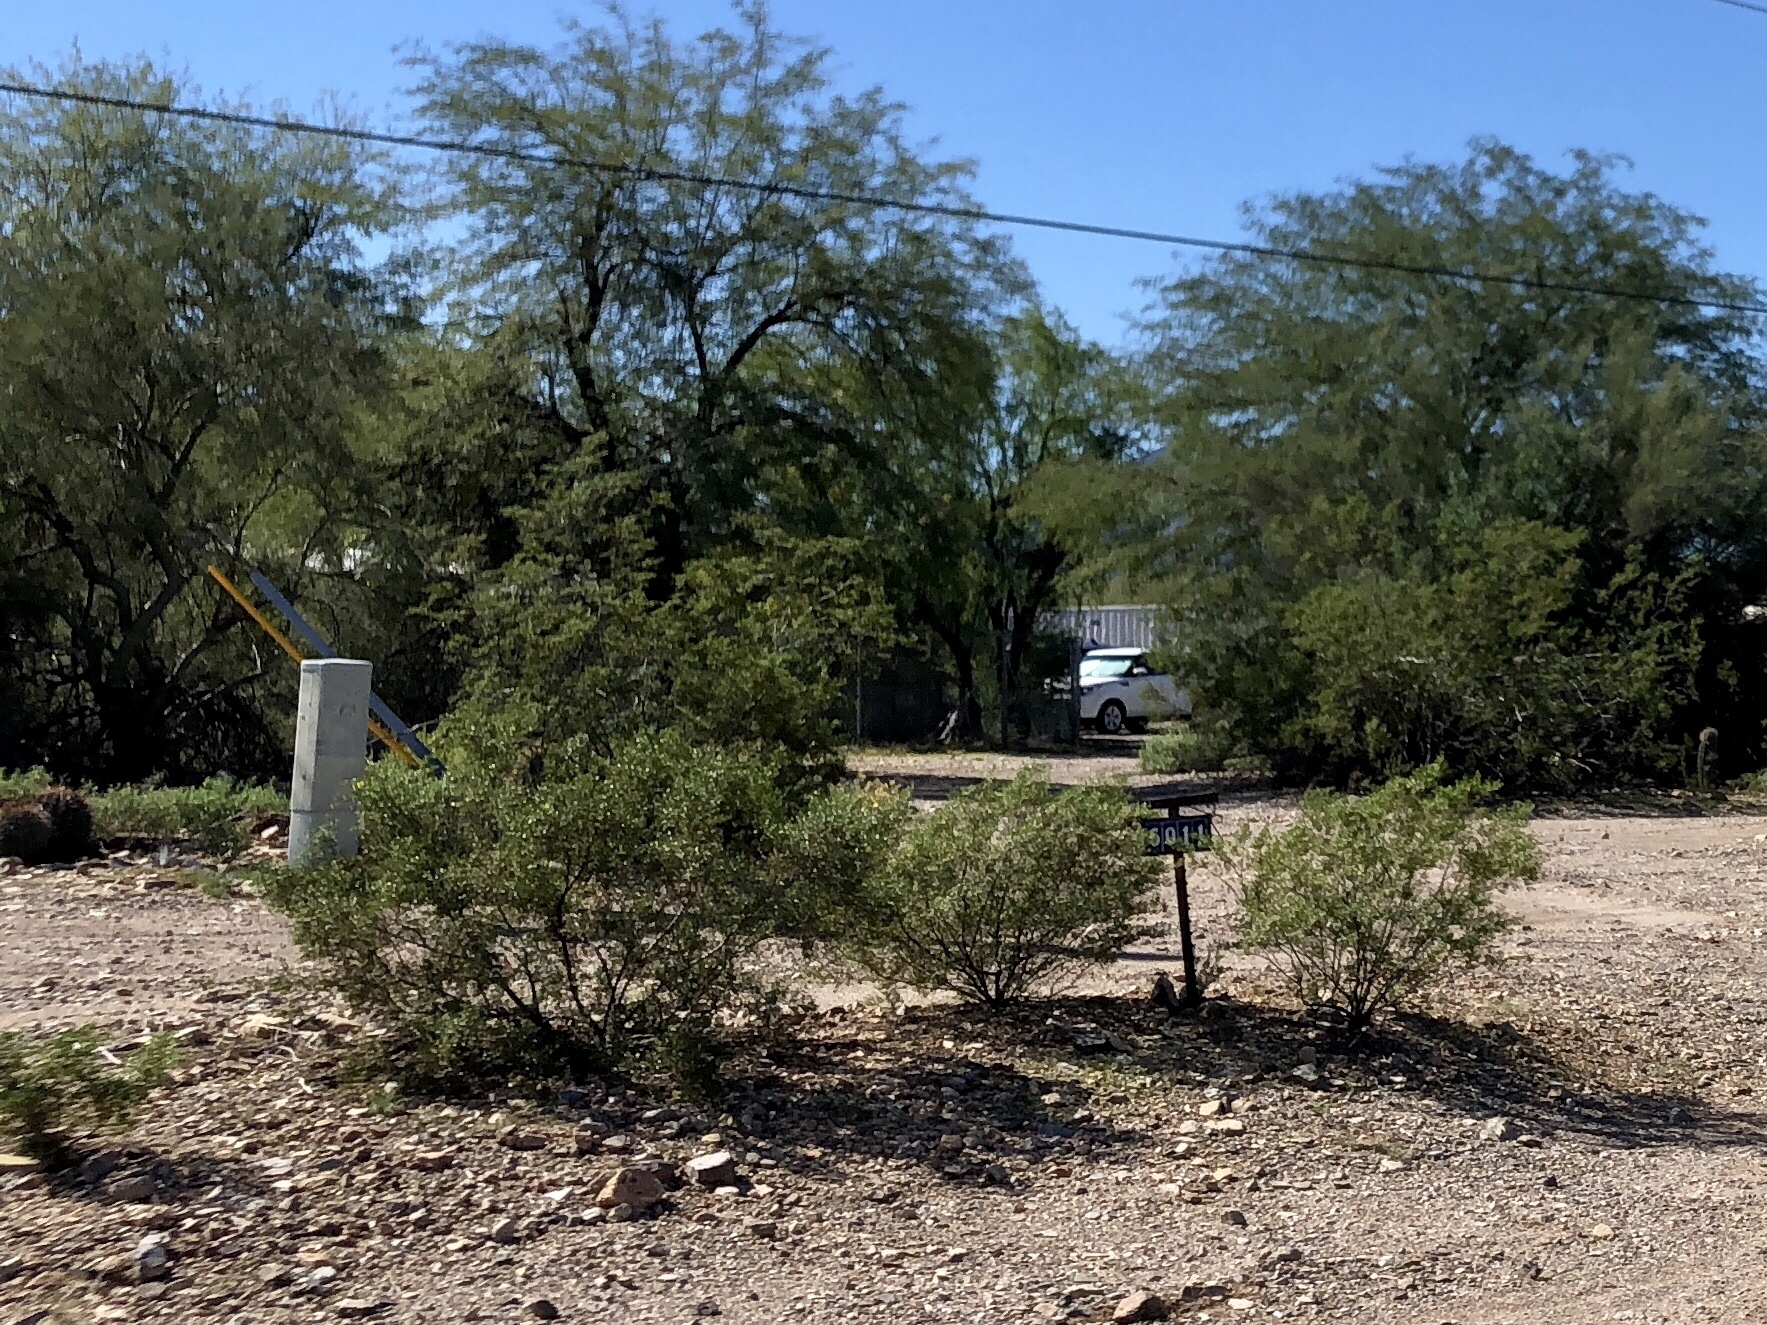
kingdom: Plantae
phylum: Tracheophyta
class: Magnoliopsida
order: Zygophyllales
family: Zygophyllaceae
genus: Larrea
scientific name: Larrea tridentata
